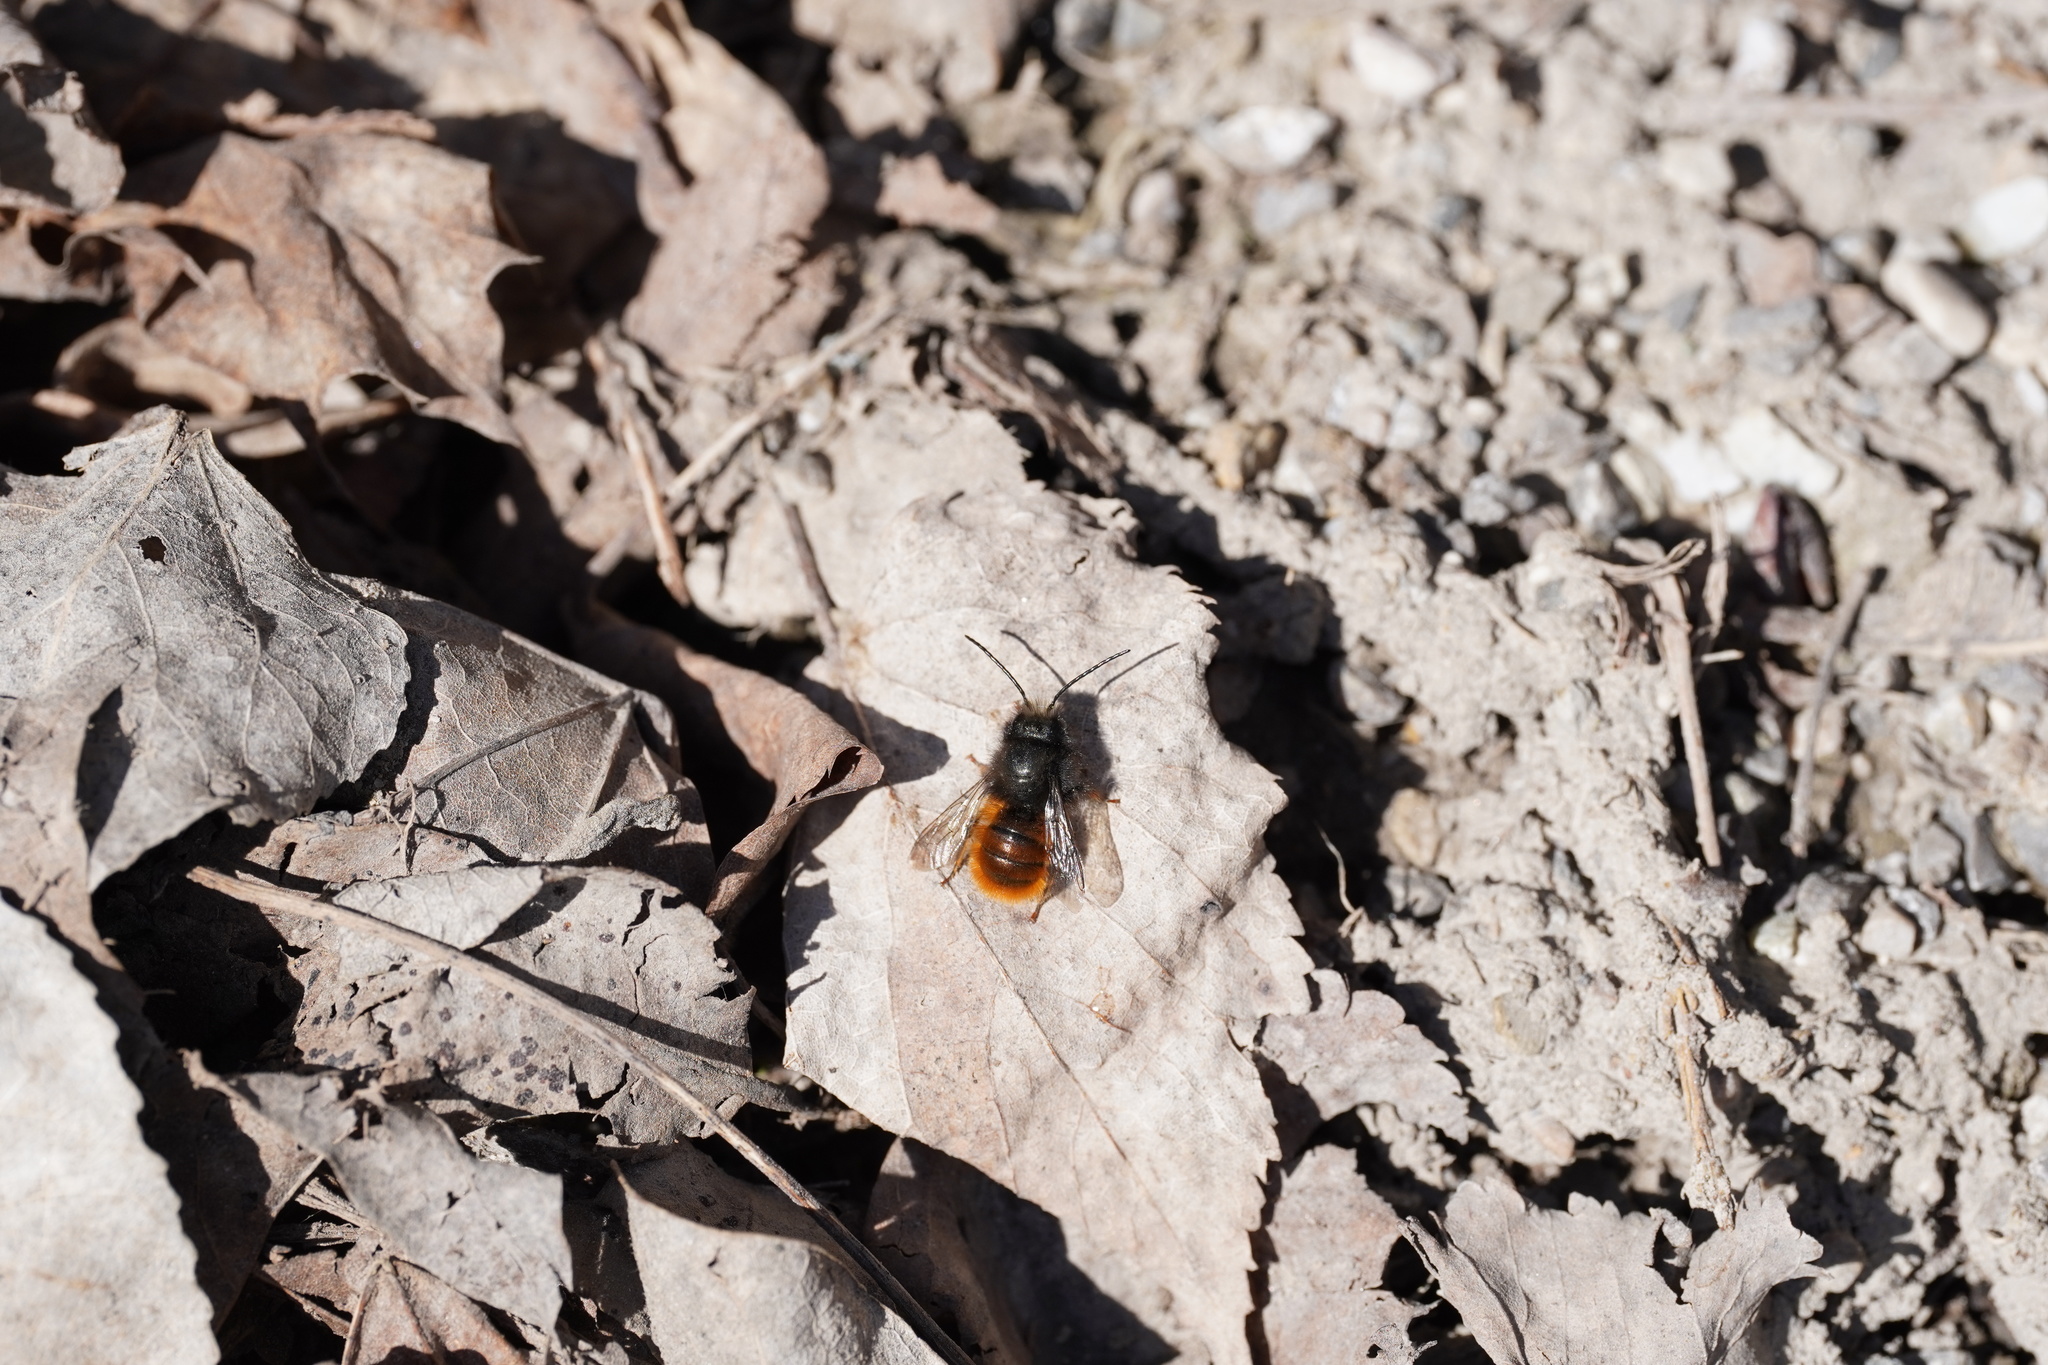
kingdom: Animalia
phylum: Arthropoda
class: Insecta
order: Hymenoptera
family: Megachilidae
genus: Osmia
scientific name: Osmia cornuta
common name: Mason bee
